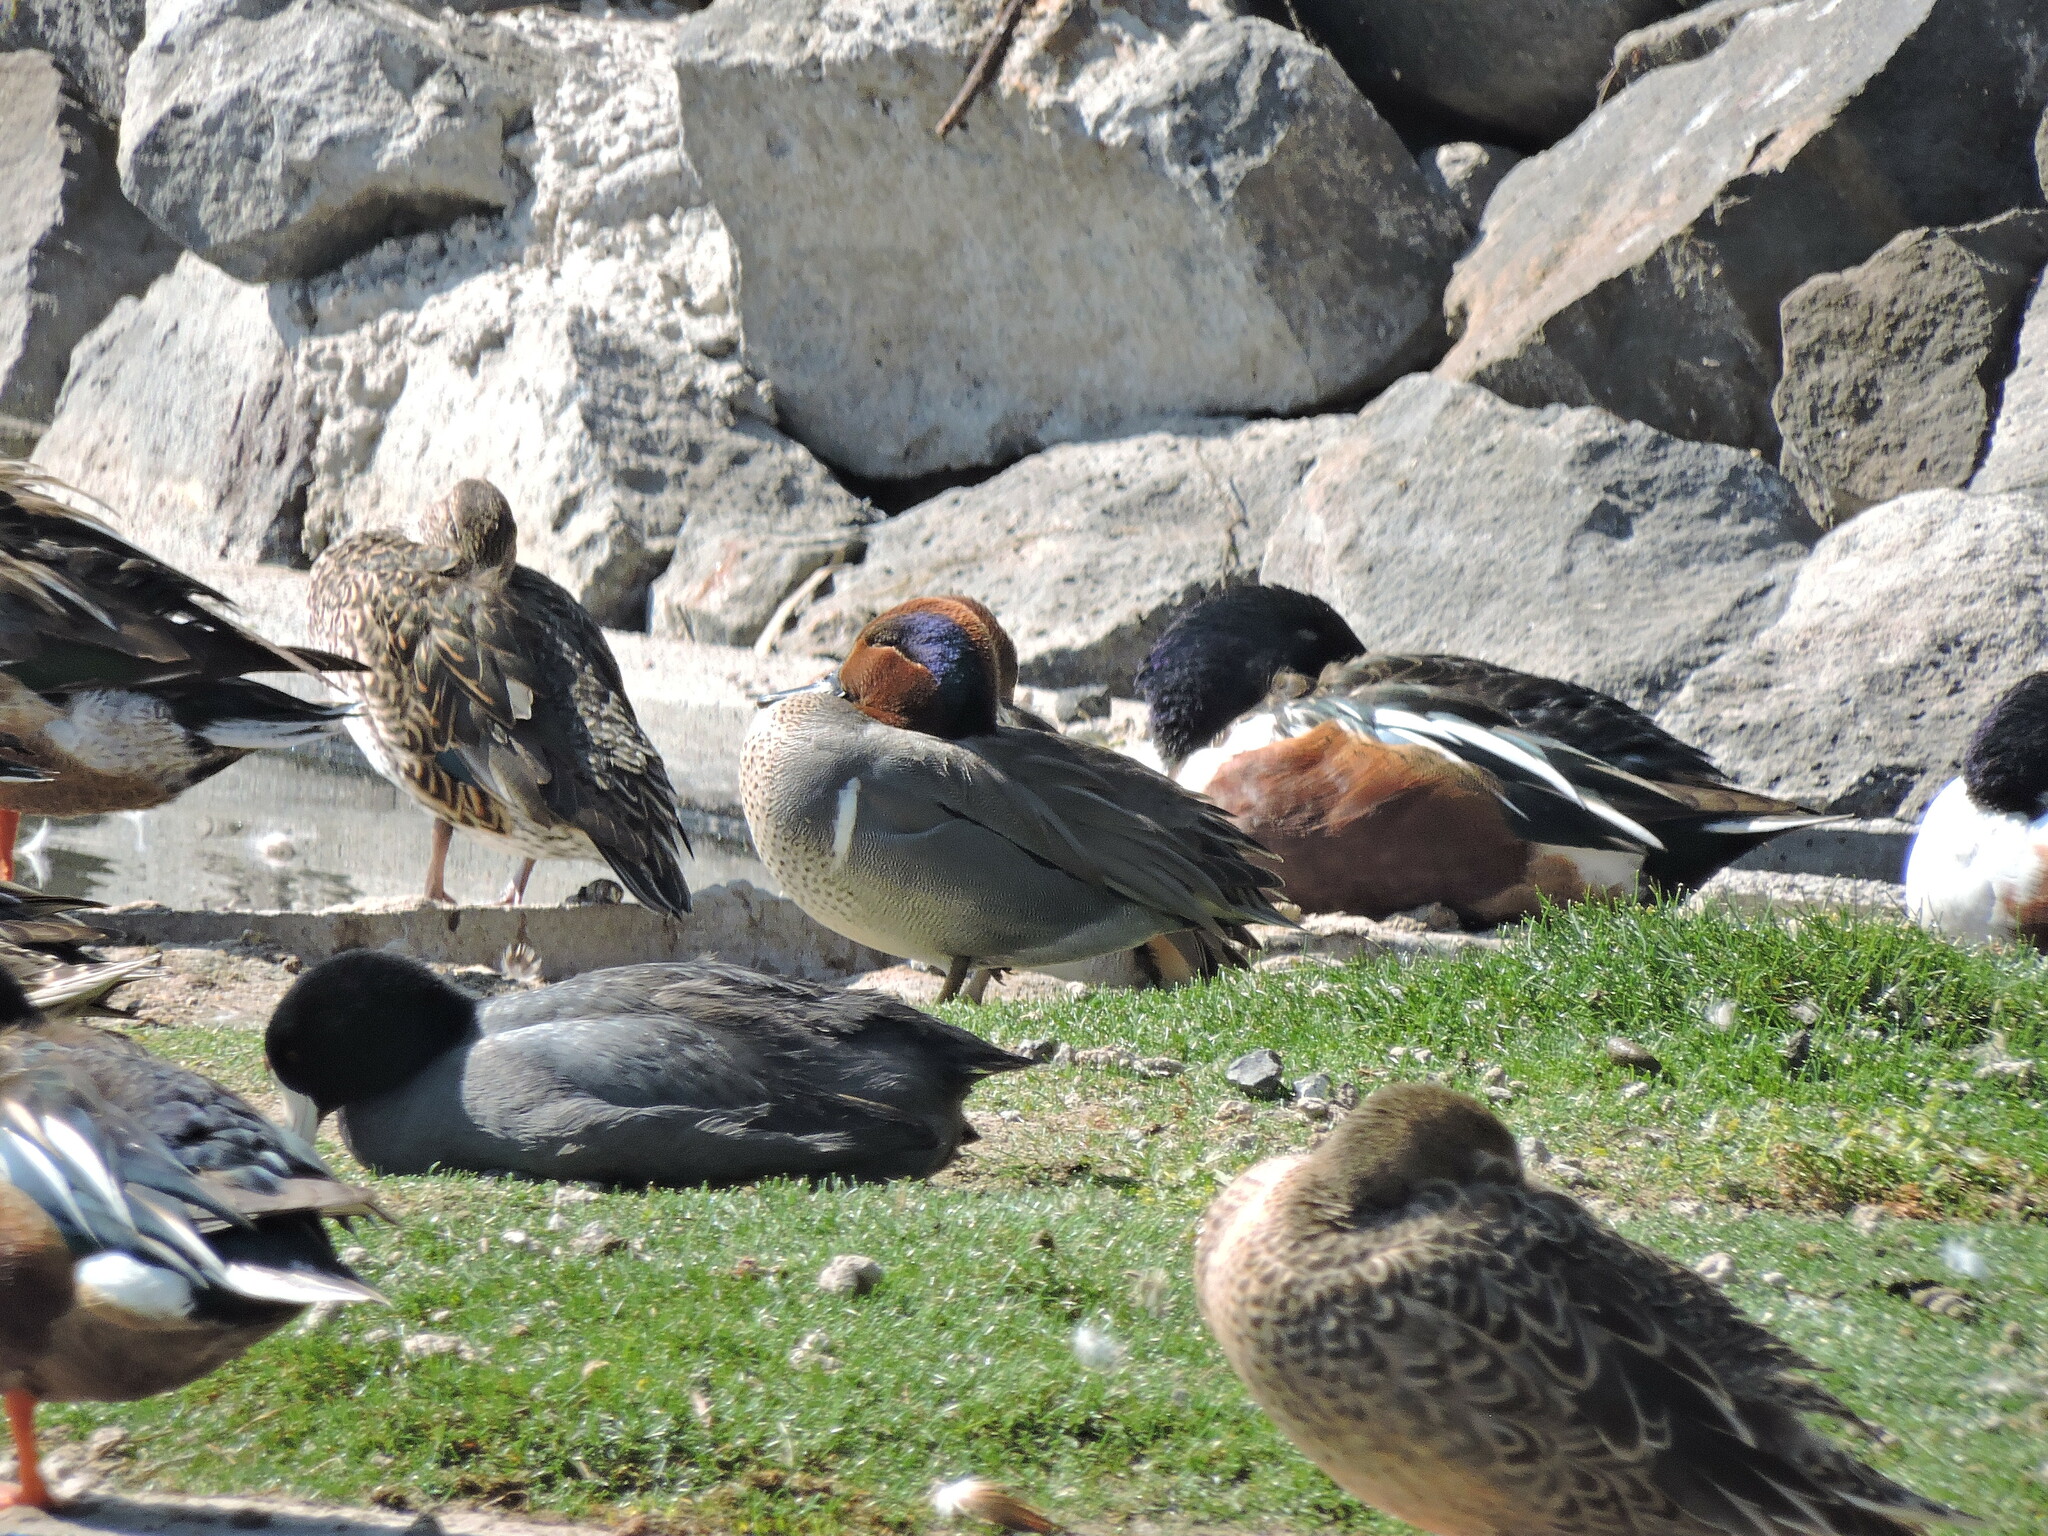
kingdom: Animalia
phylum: Chordata
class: Aves
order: Anseriformes
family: Anatidae
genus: Anas
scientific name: Anas crecca
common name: Eurasian teal
